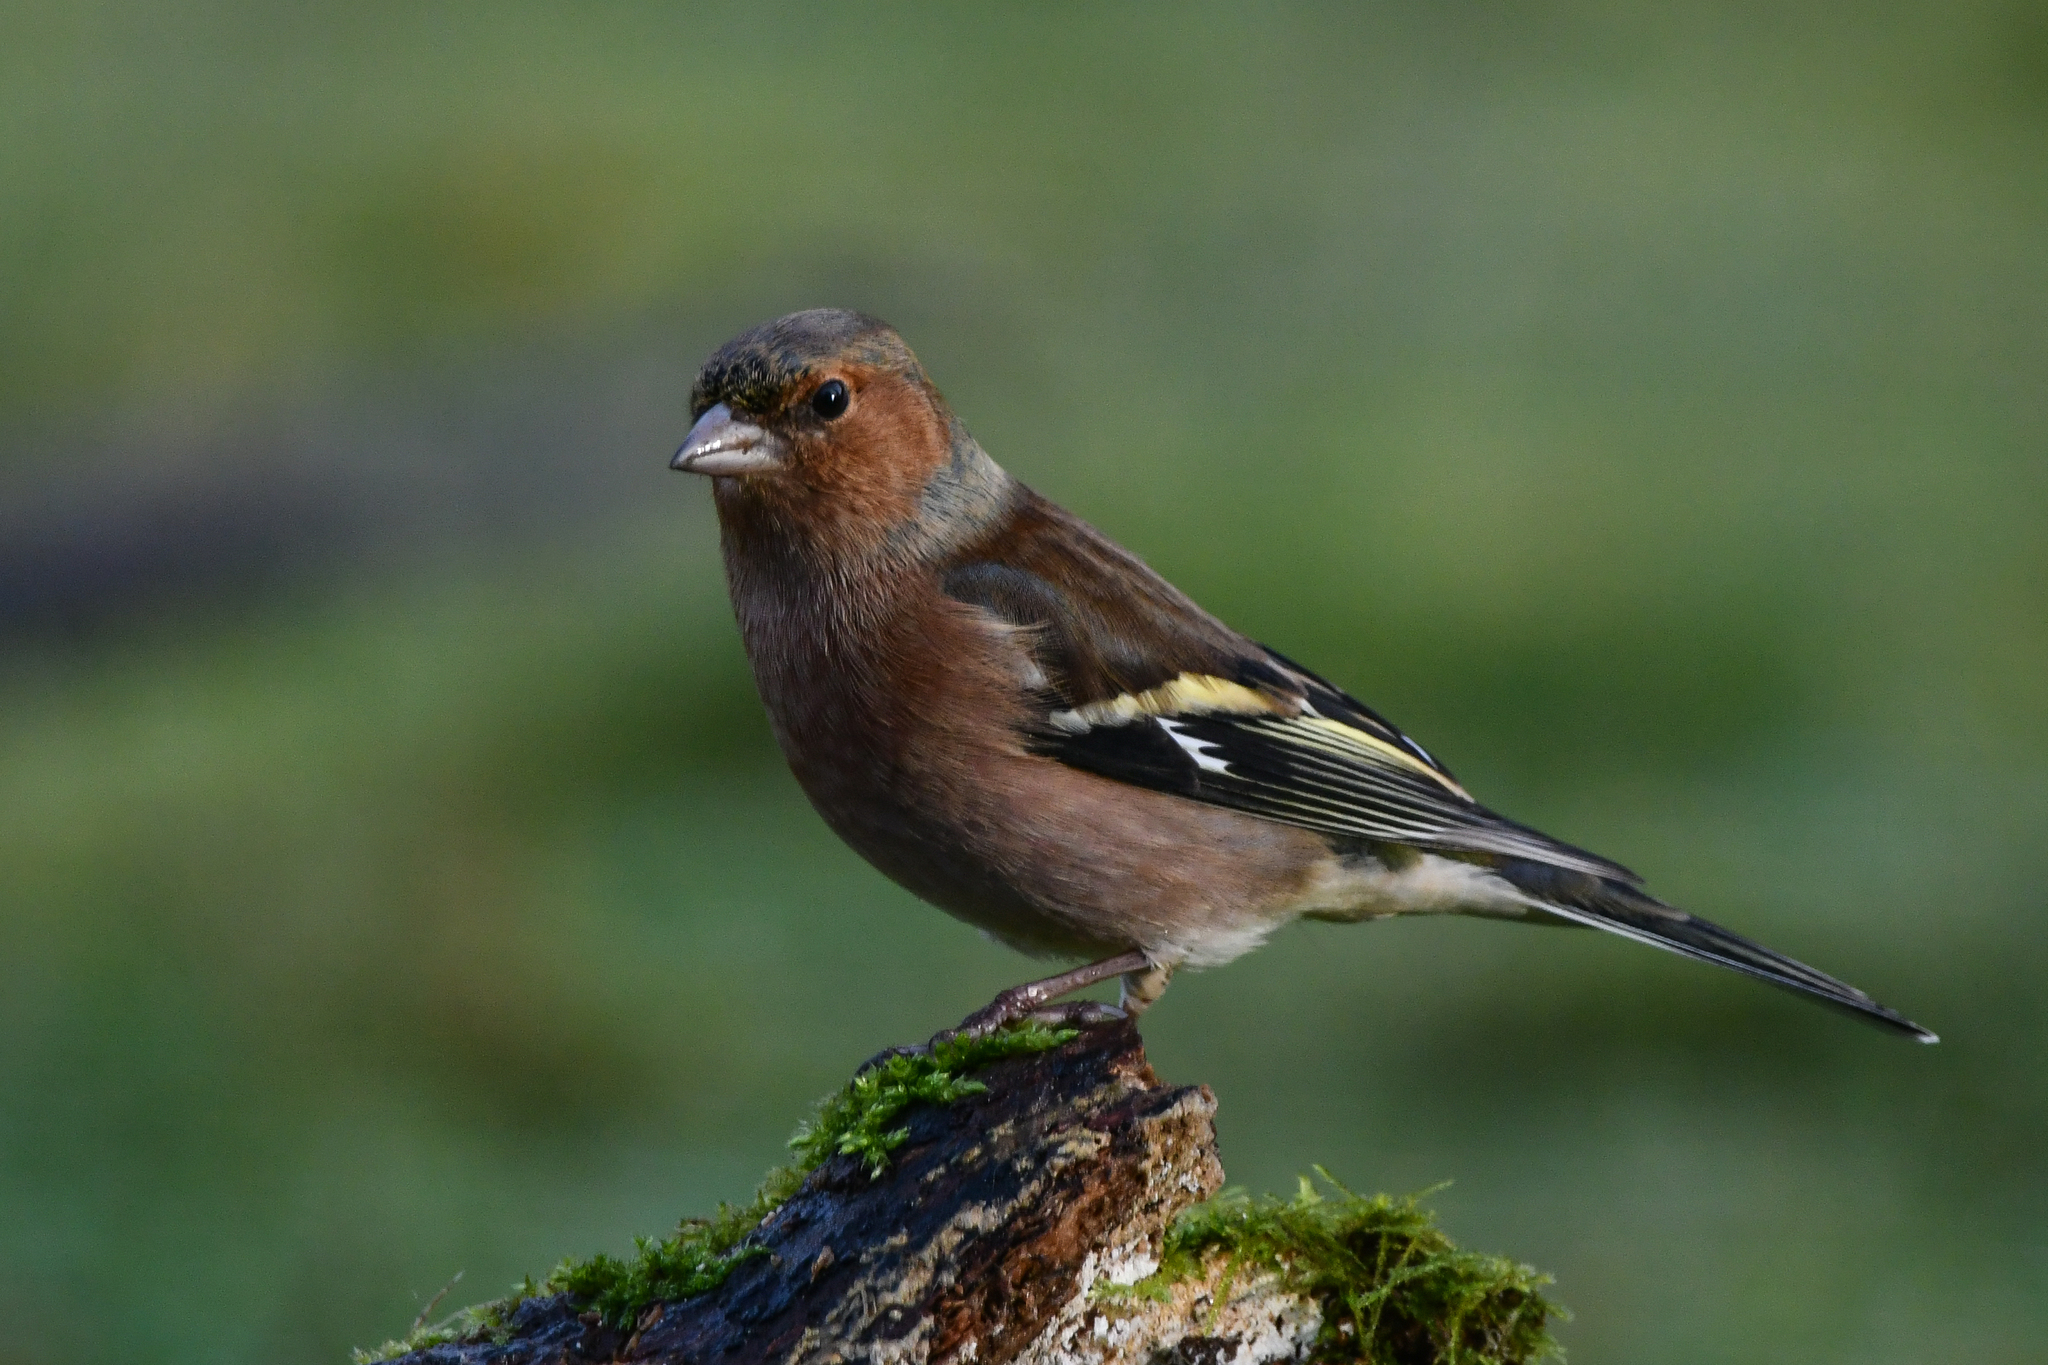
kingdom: Animalia
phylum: Chordata
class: Aves
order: Passeriformes
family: Fringillidae
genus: Fringilla
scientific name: Fringilla coelebs
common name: Common chaffinch
